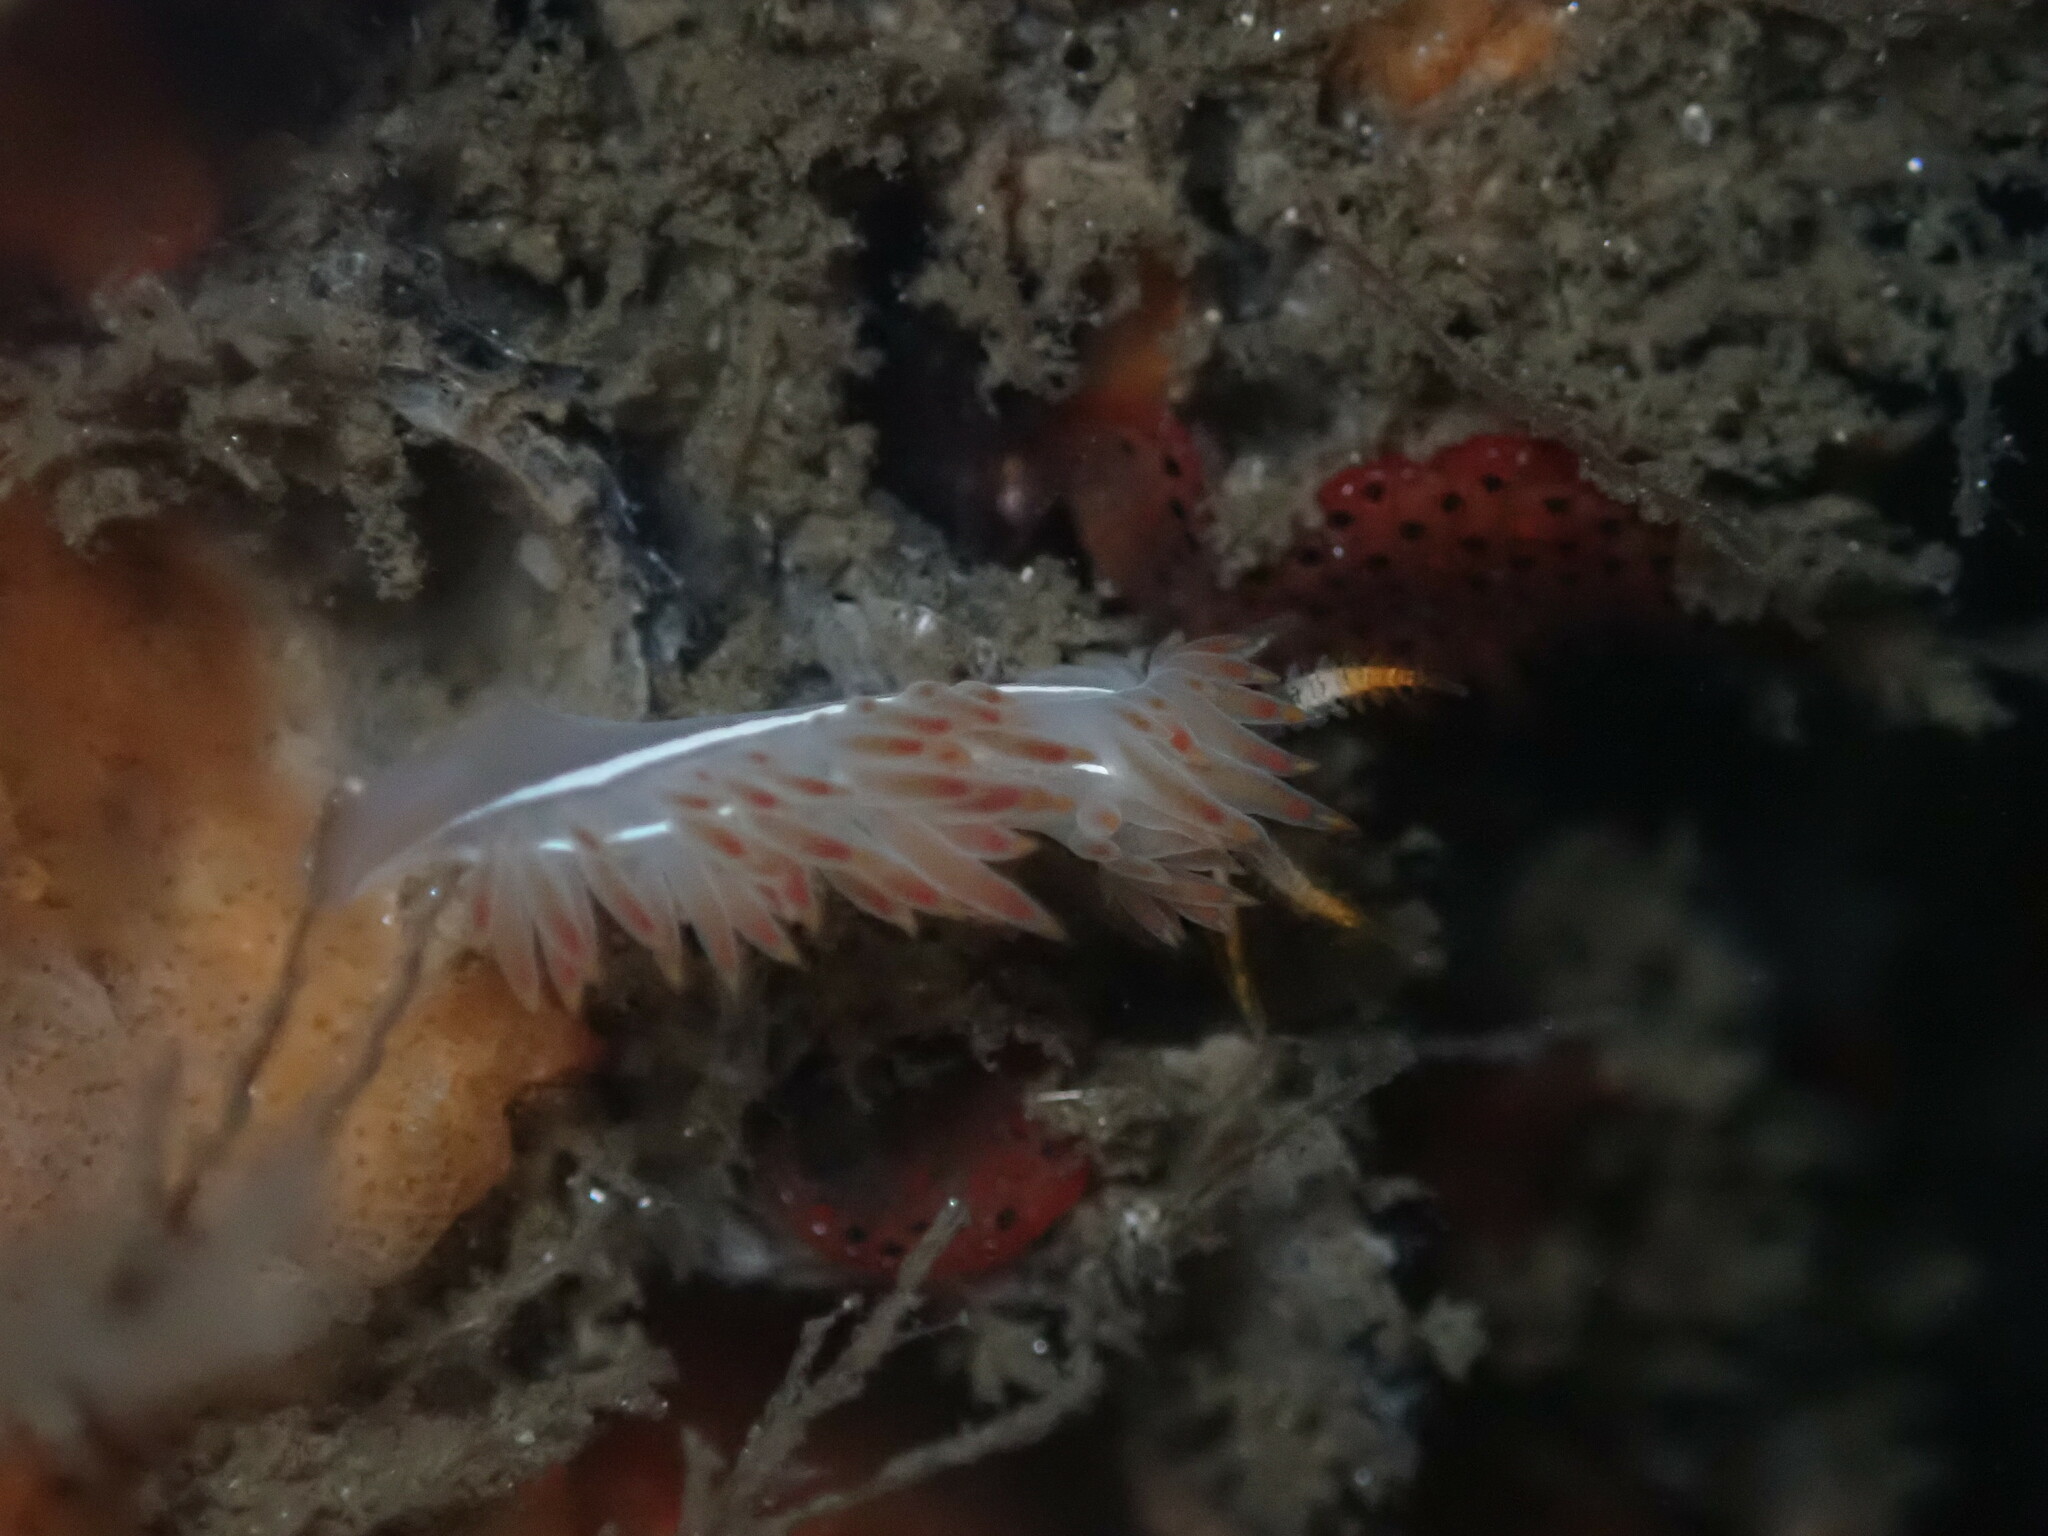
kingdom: Animalia
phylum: Mollusca
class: Gastropoda
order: Nudibranchia
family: Coryphellidae
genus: Coryphella
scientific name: Coryphella trilineata
